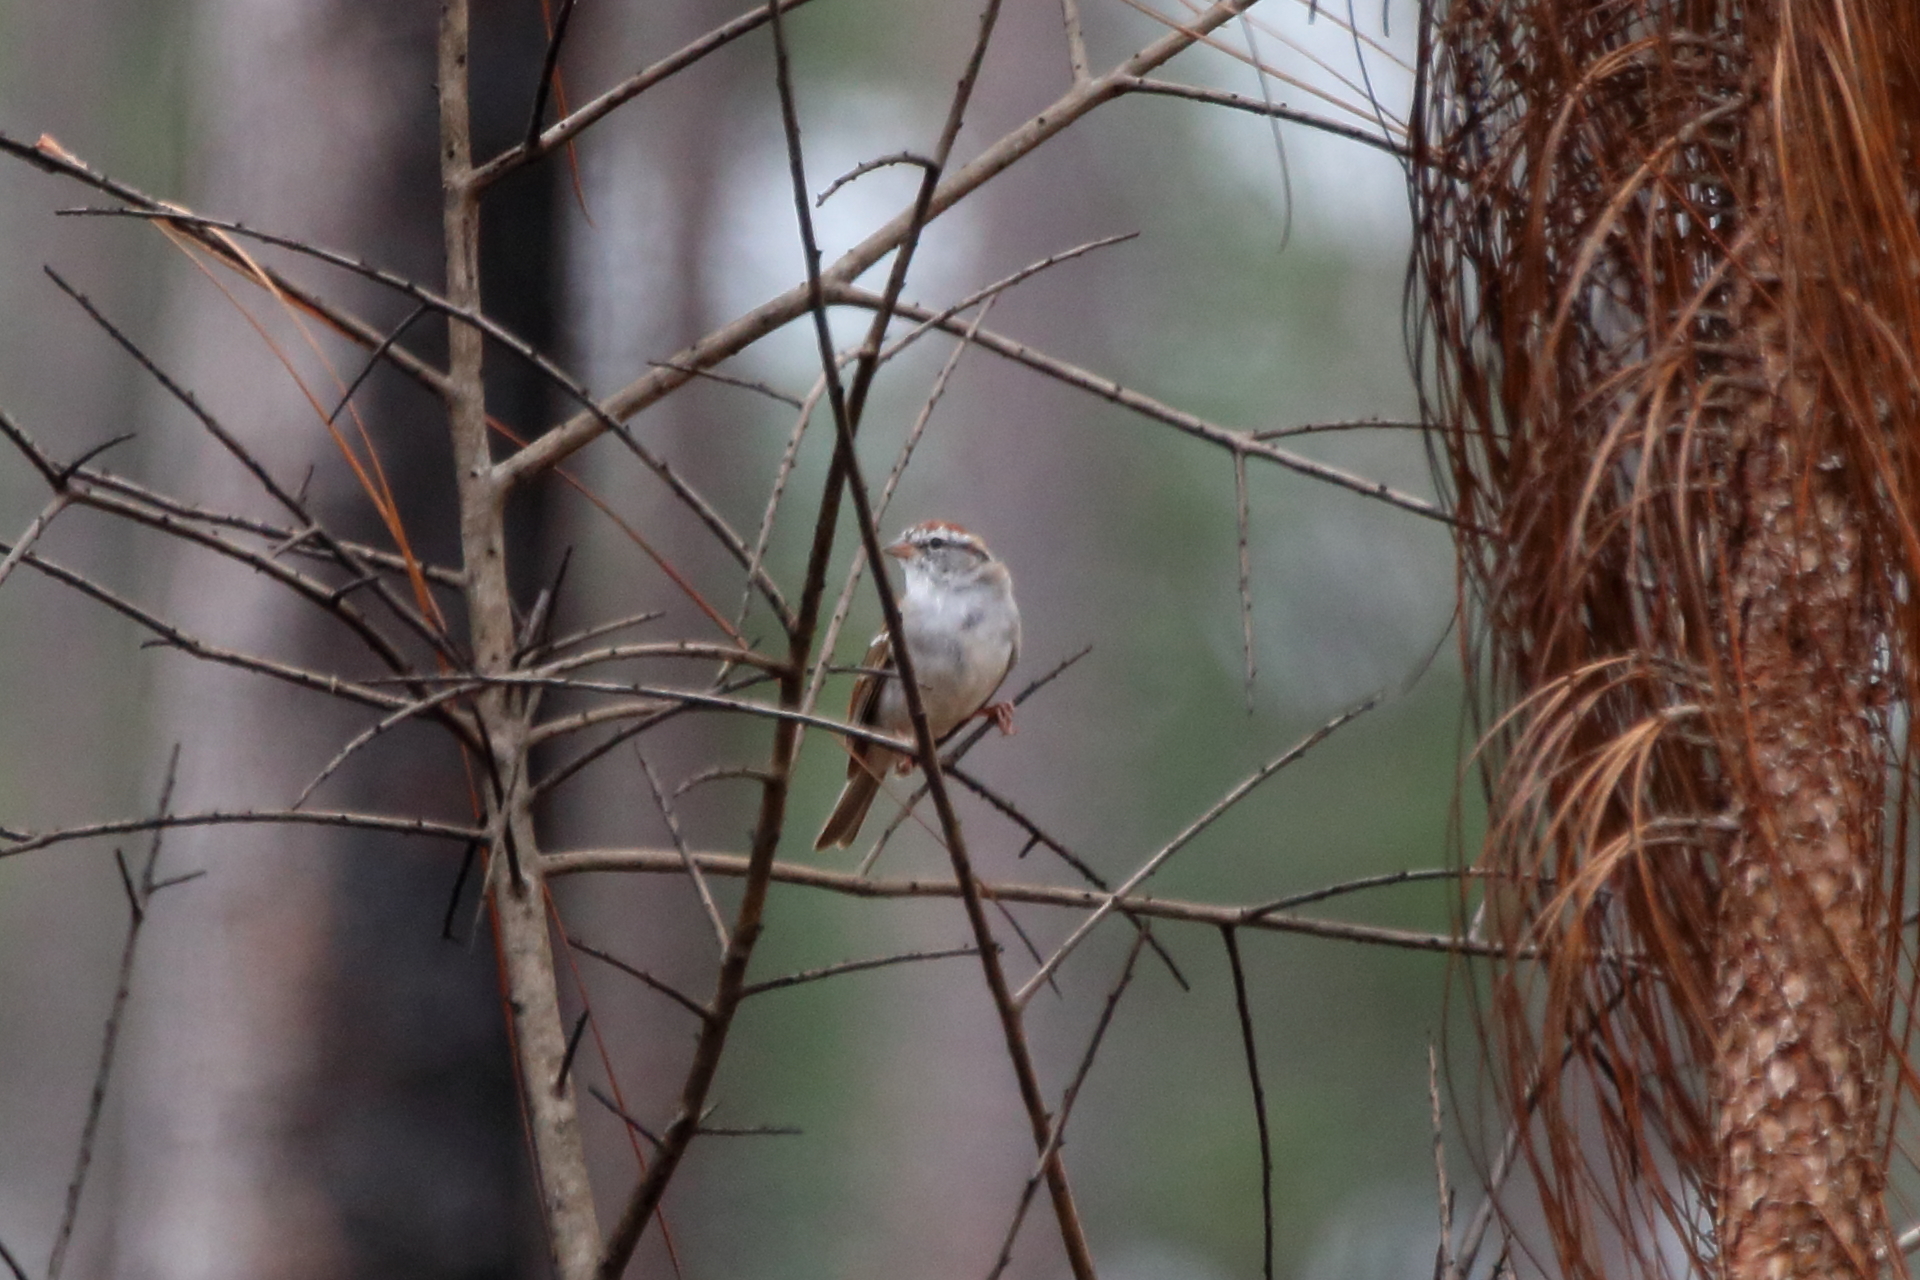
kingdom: Animalia
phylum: Chordata
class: Aves
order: Passeriformes
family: Passerellidae
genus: Spizella
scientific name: Spizella passerina
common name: Chipping sparrow
